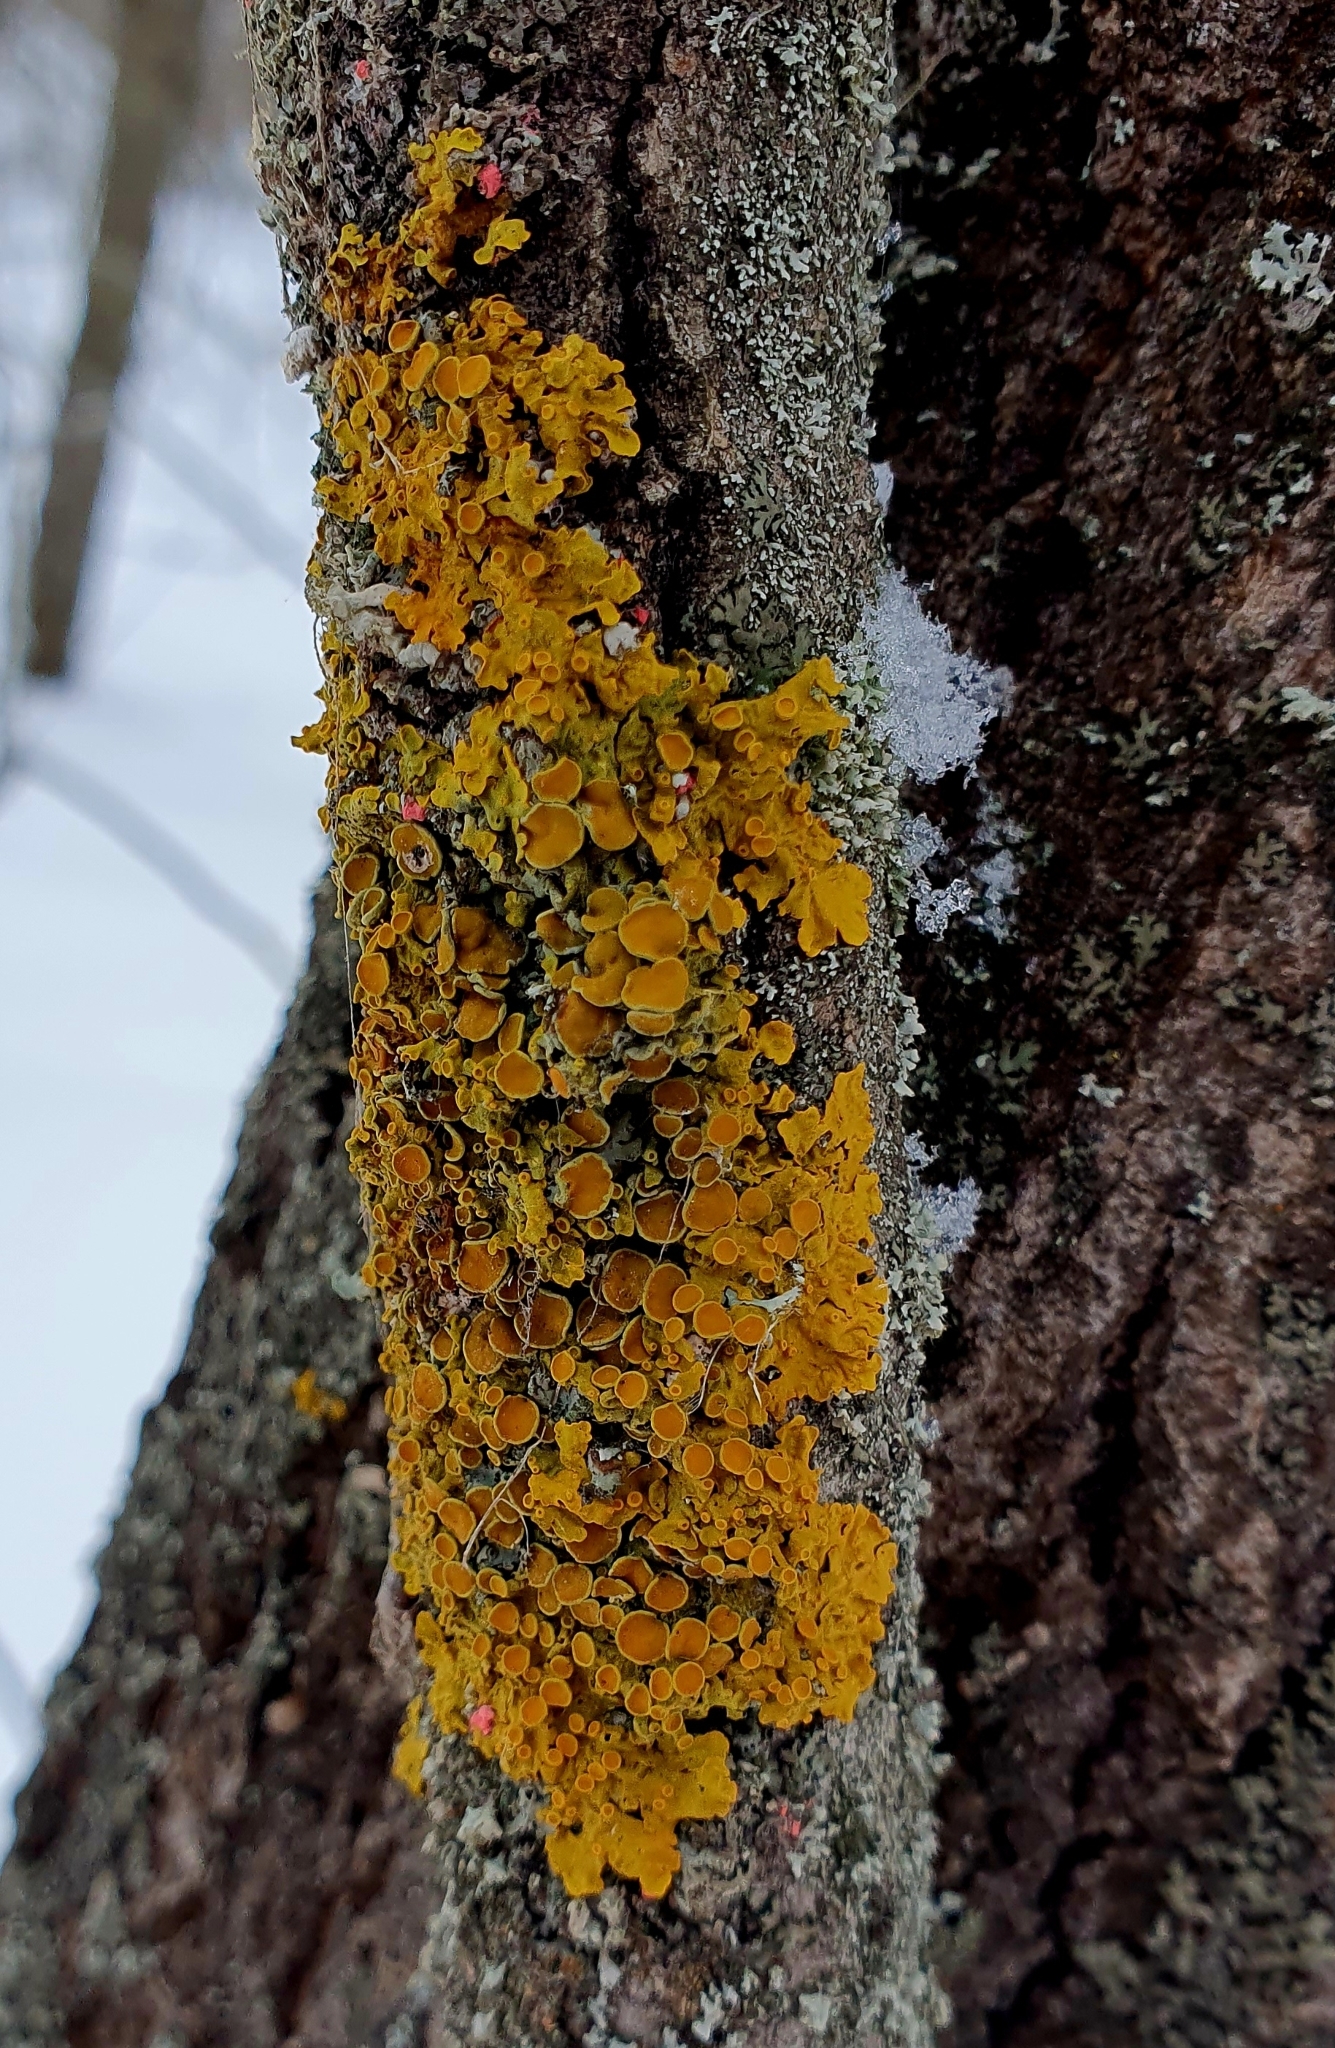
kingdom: Fungi
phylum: Ascomycota
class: Lecanoromycetes
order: Teloschistales
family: Teloschistaceae
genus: Xanthoria
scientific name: Xanthoria parietina
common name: Common orange lichen
